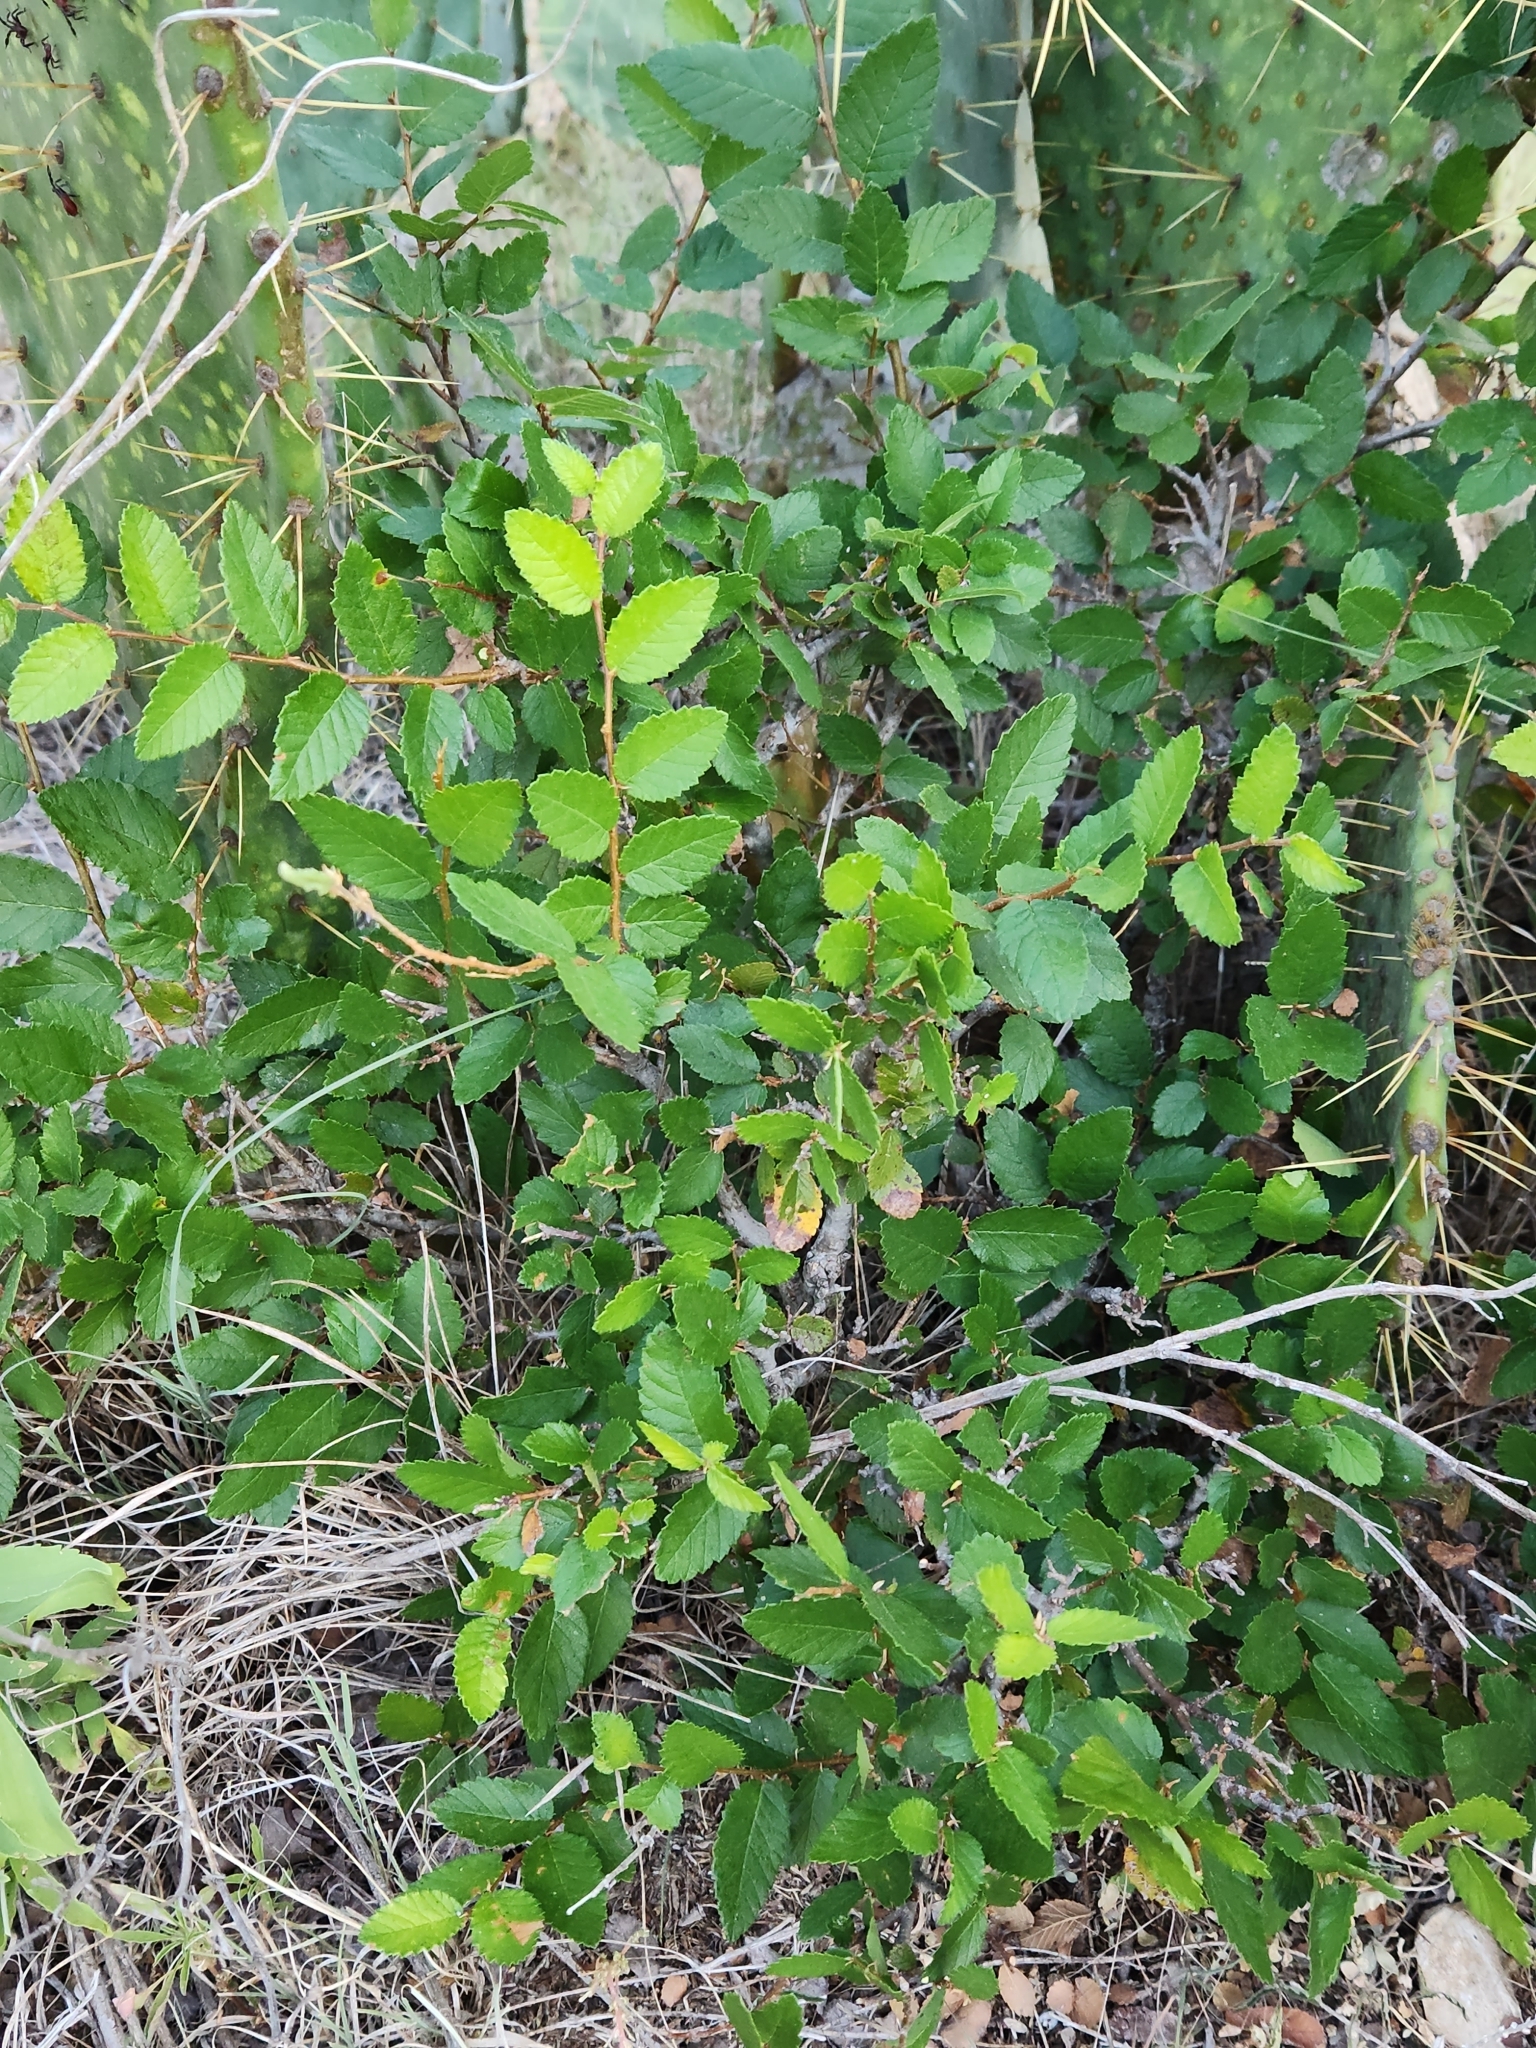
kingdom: Plantae
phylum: Tracheophyta
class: Magnoliopsida
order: Rosales
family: Ulmaceae
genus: Ulmus
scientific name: Ulmus crassifolia
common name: Basket elm
